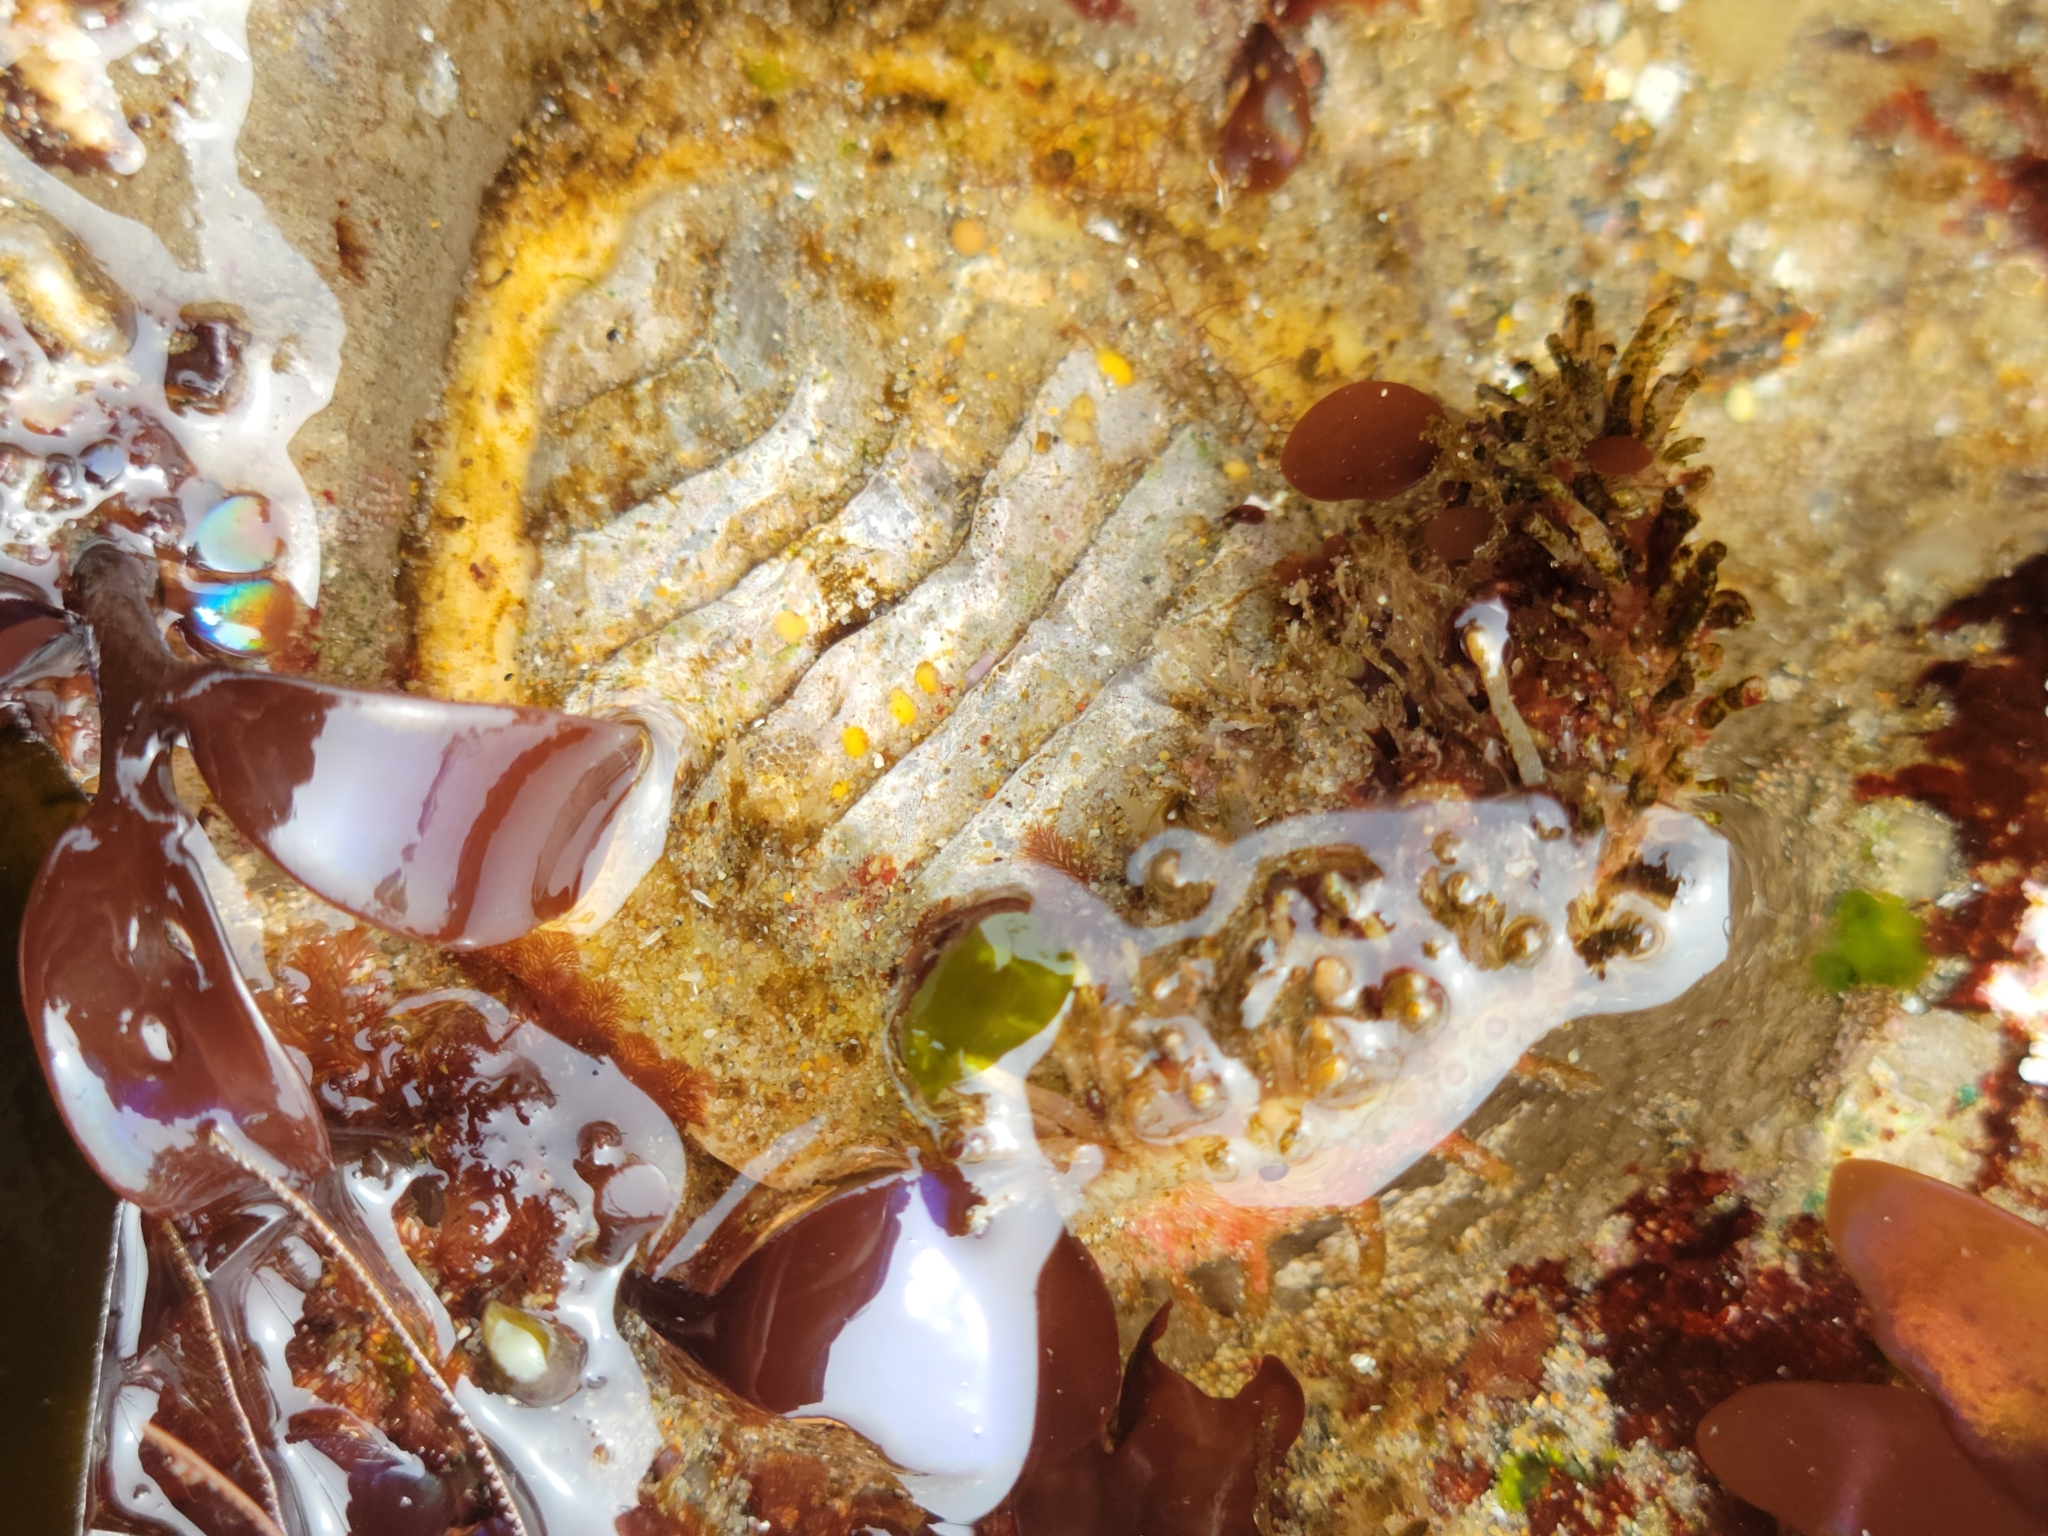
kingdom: Animalia
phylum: Mollusca
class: Polyplacophora
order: Chitonida
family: Mopaliidae
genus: Placiphorella
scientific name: Placiphorella velata
